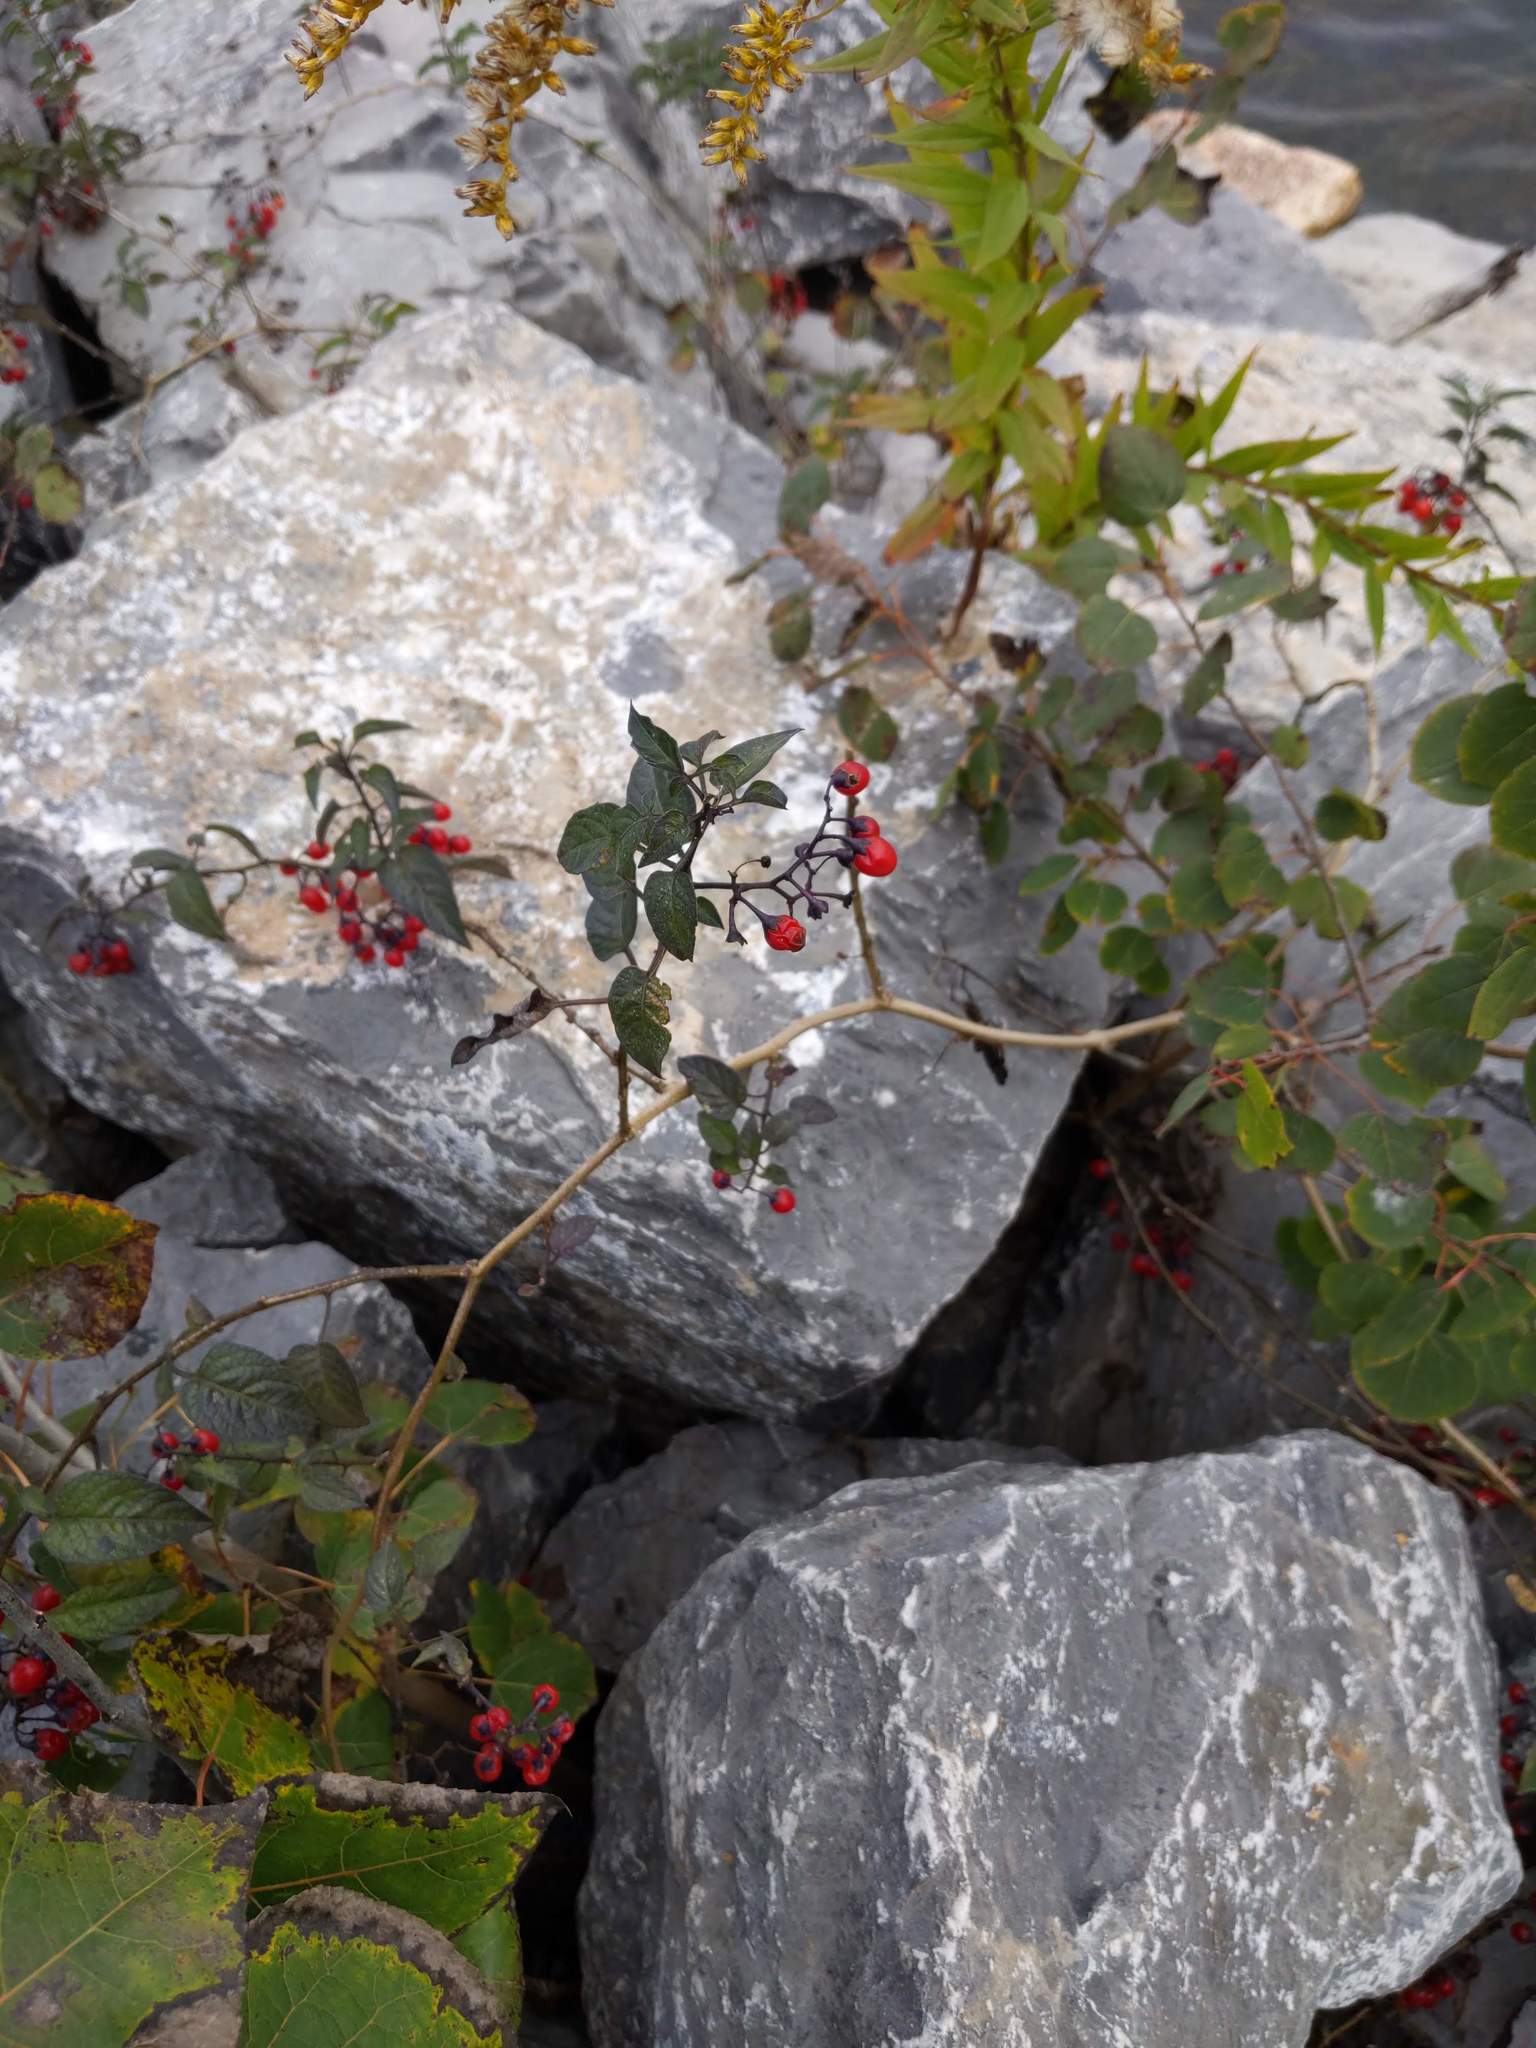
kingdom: Plantae
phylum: Tracheophyta
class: Magnoliopsida
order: Solanales
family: Solanaceae
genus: Solanum
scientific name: Solanum dulcamara
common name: Climbing nightshade
